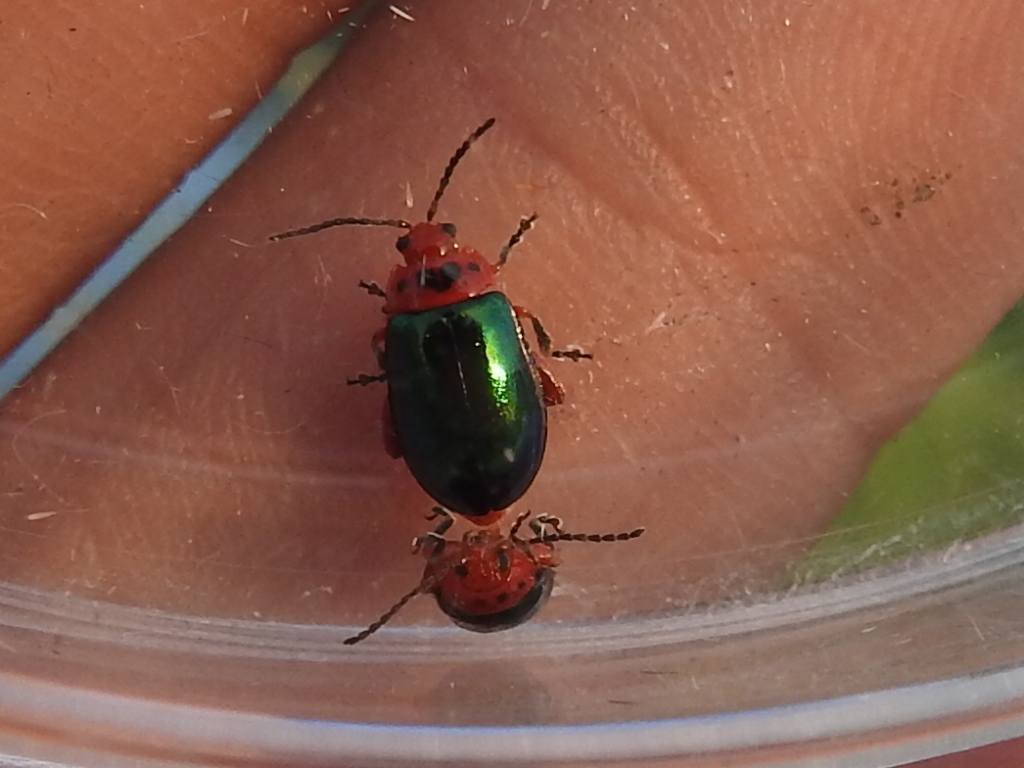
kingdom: Animalia
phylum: Arthropoda
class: Insecta
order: Coleoptera
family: Chrysomelidae
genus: Kuschelina
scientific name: Kuschelina gibbitarsa
